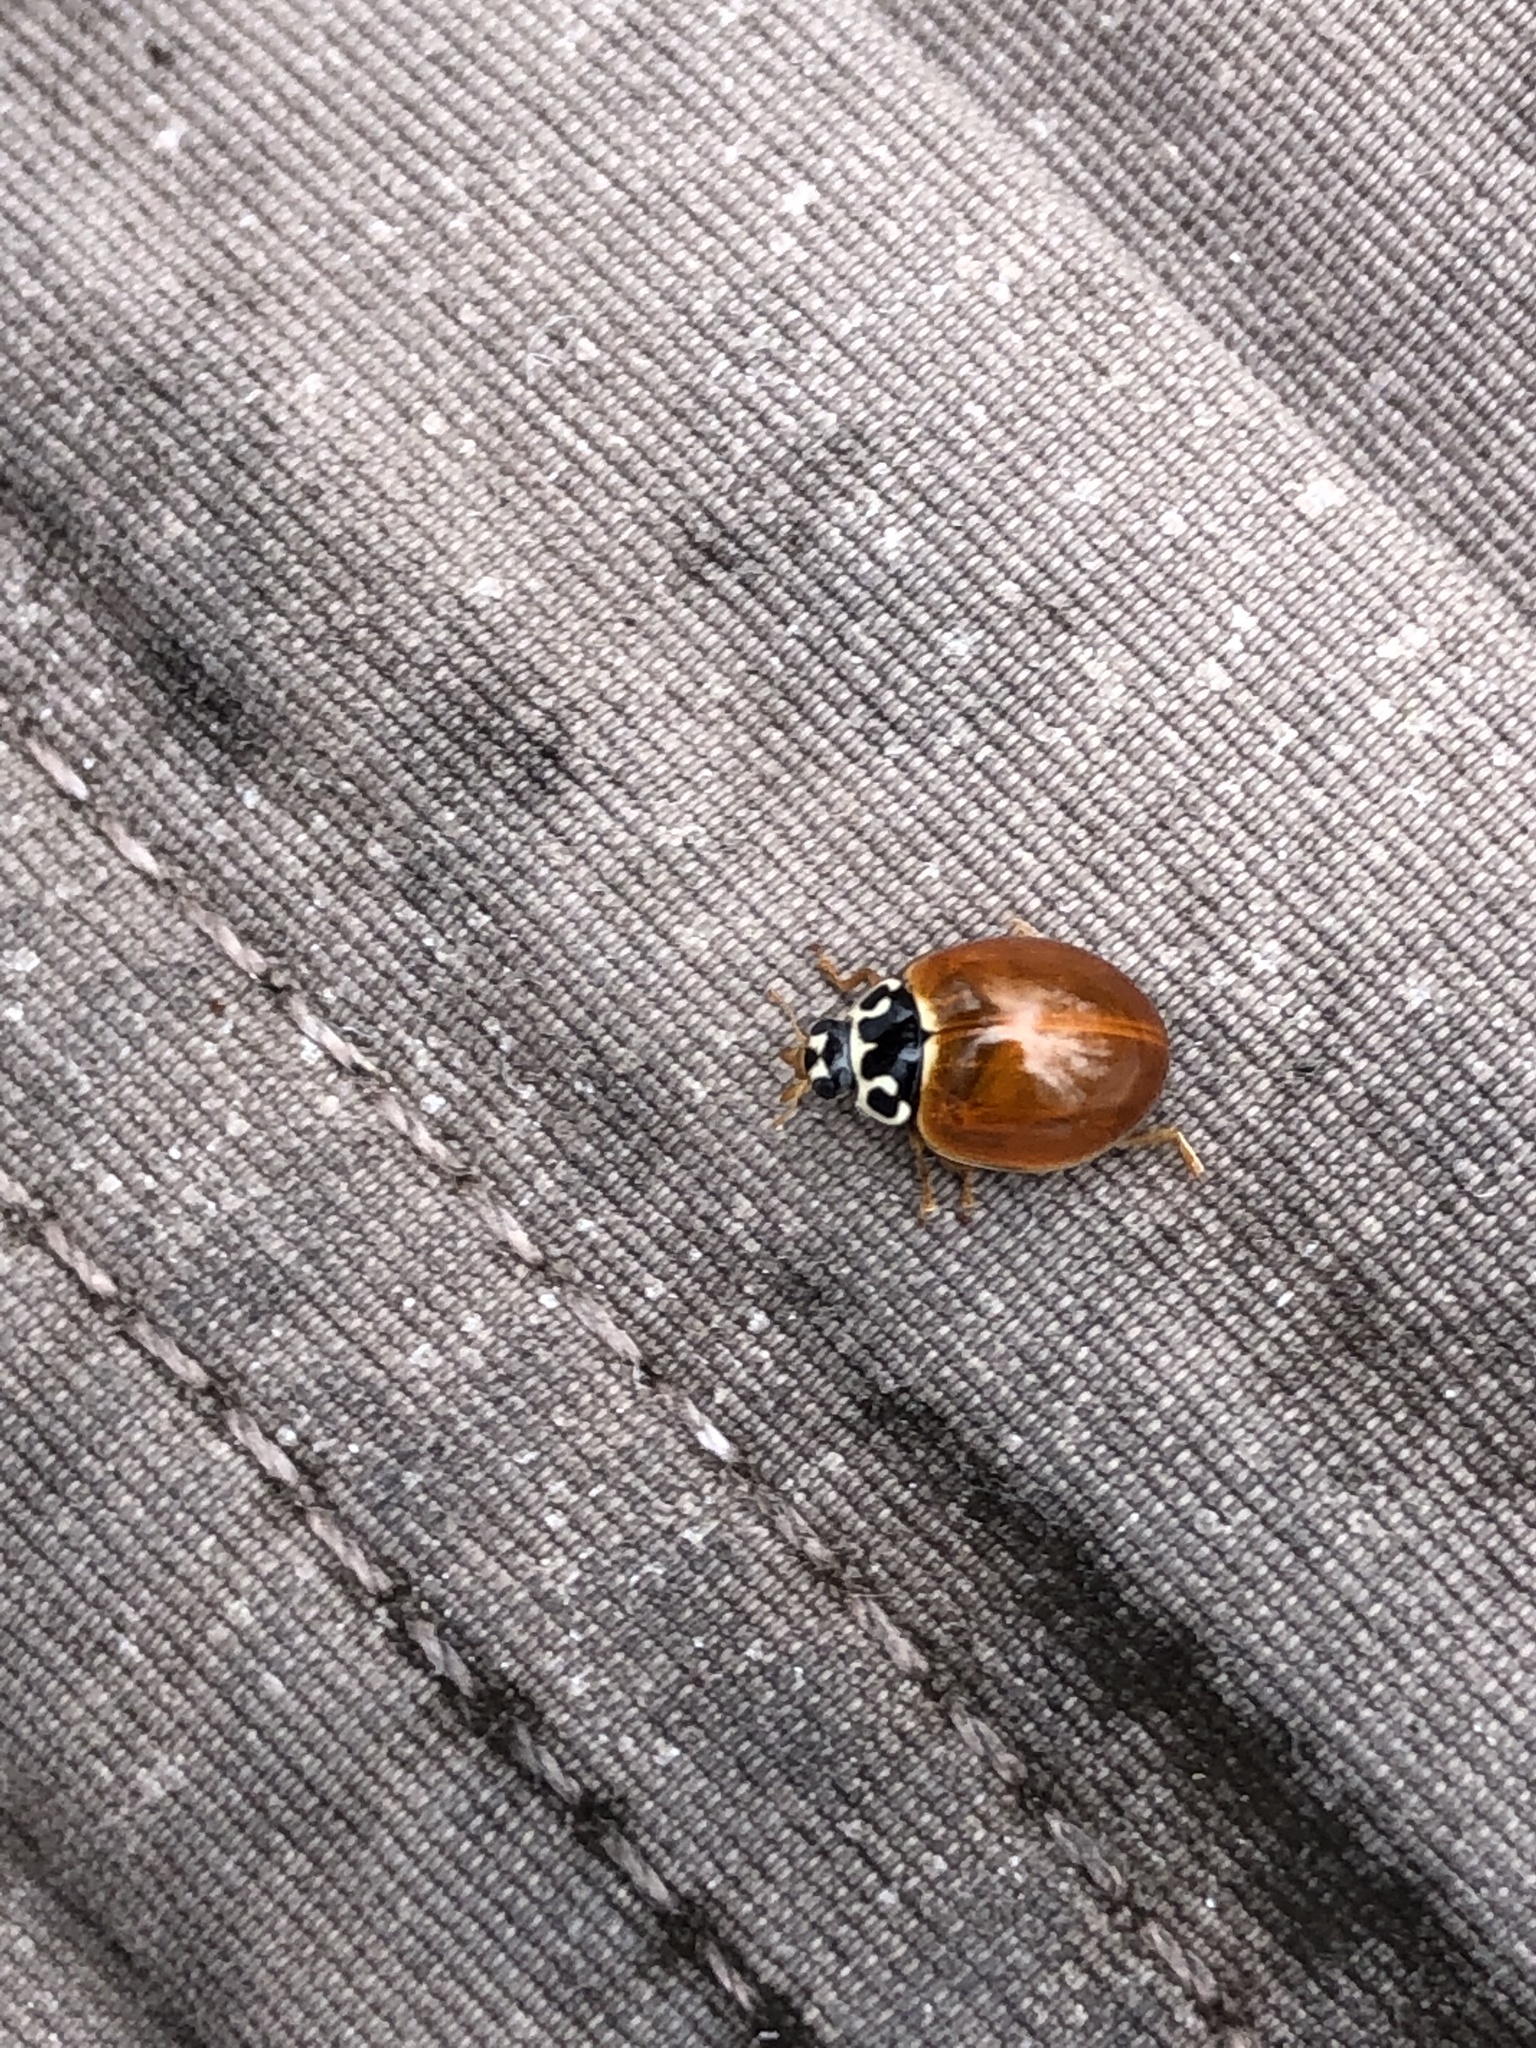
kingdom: Animalia
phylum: Arthropoda
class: Insecta
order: Coleoptera
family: Coccinellidae
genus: Cycloneda
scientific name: Cycloneda munda
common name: Polished lady beetle
